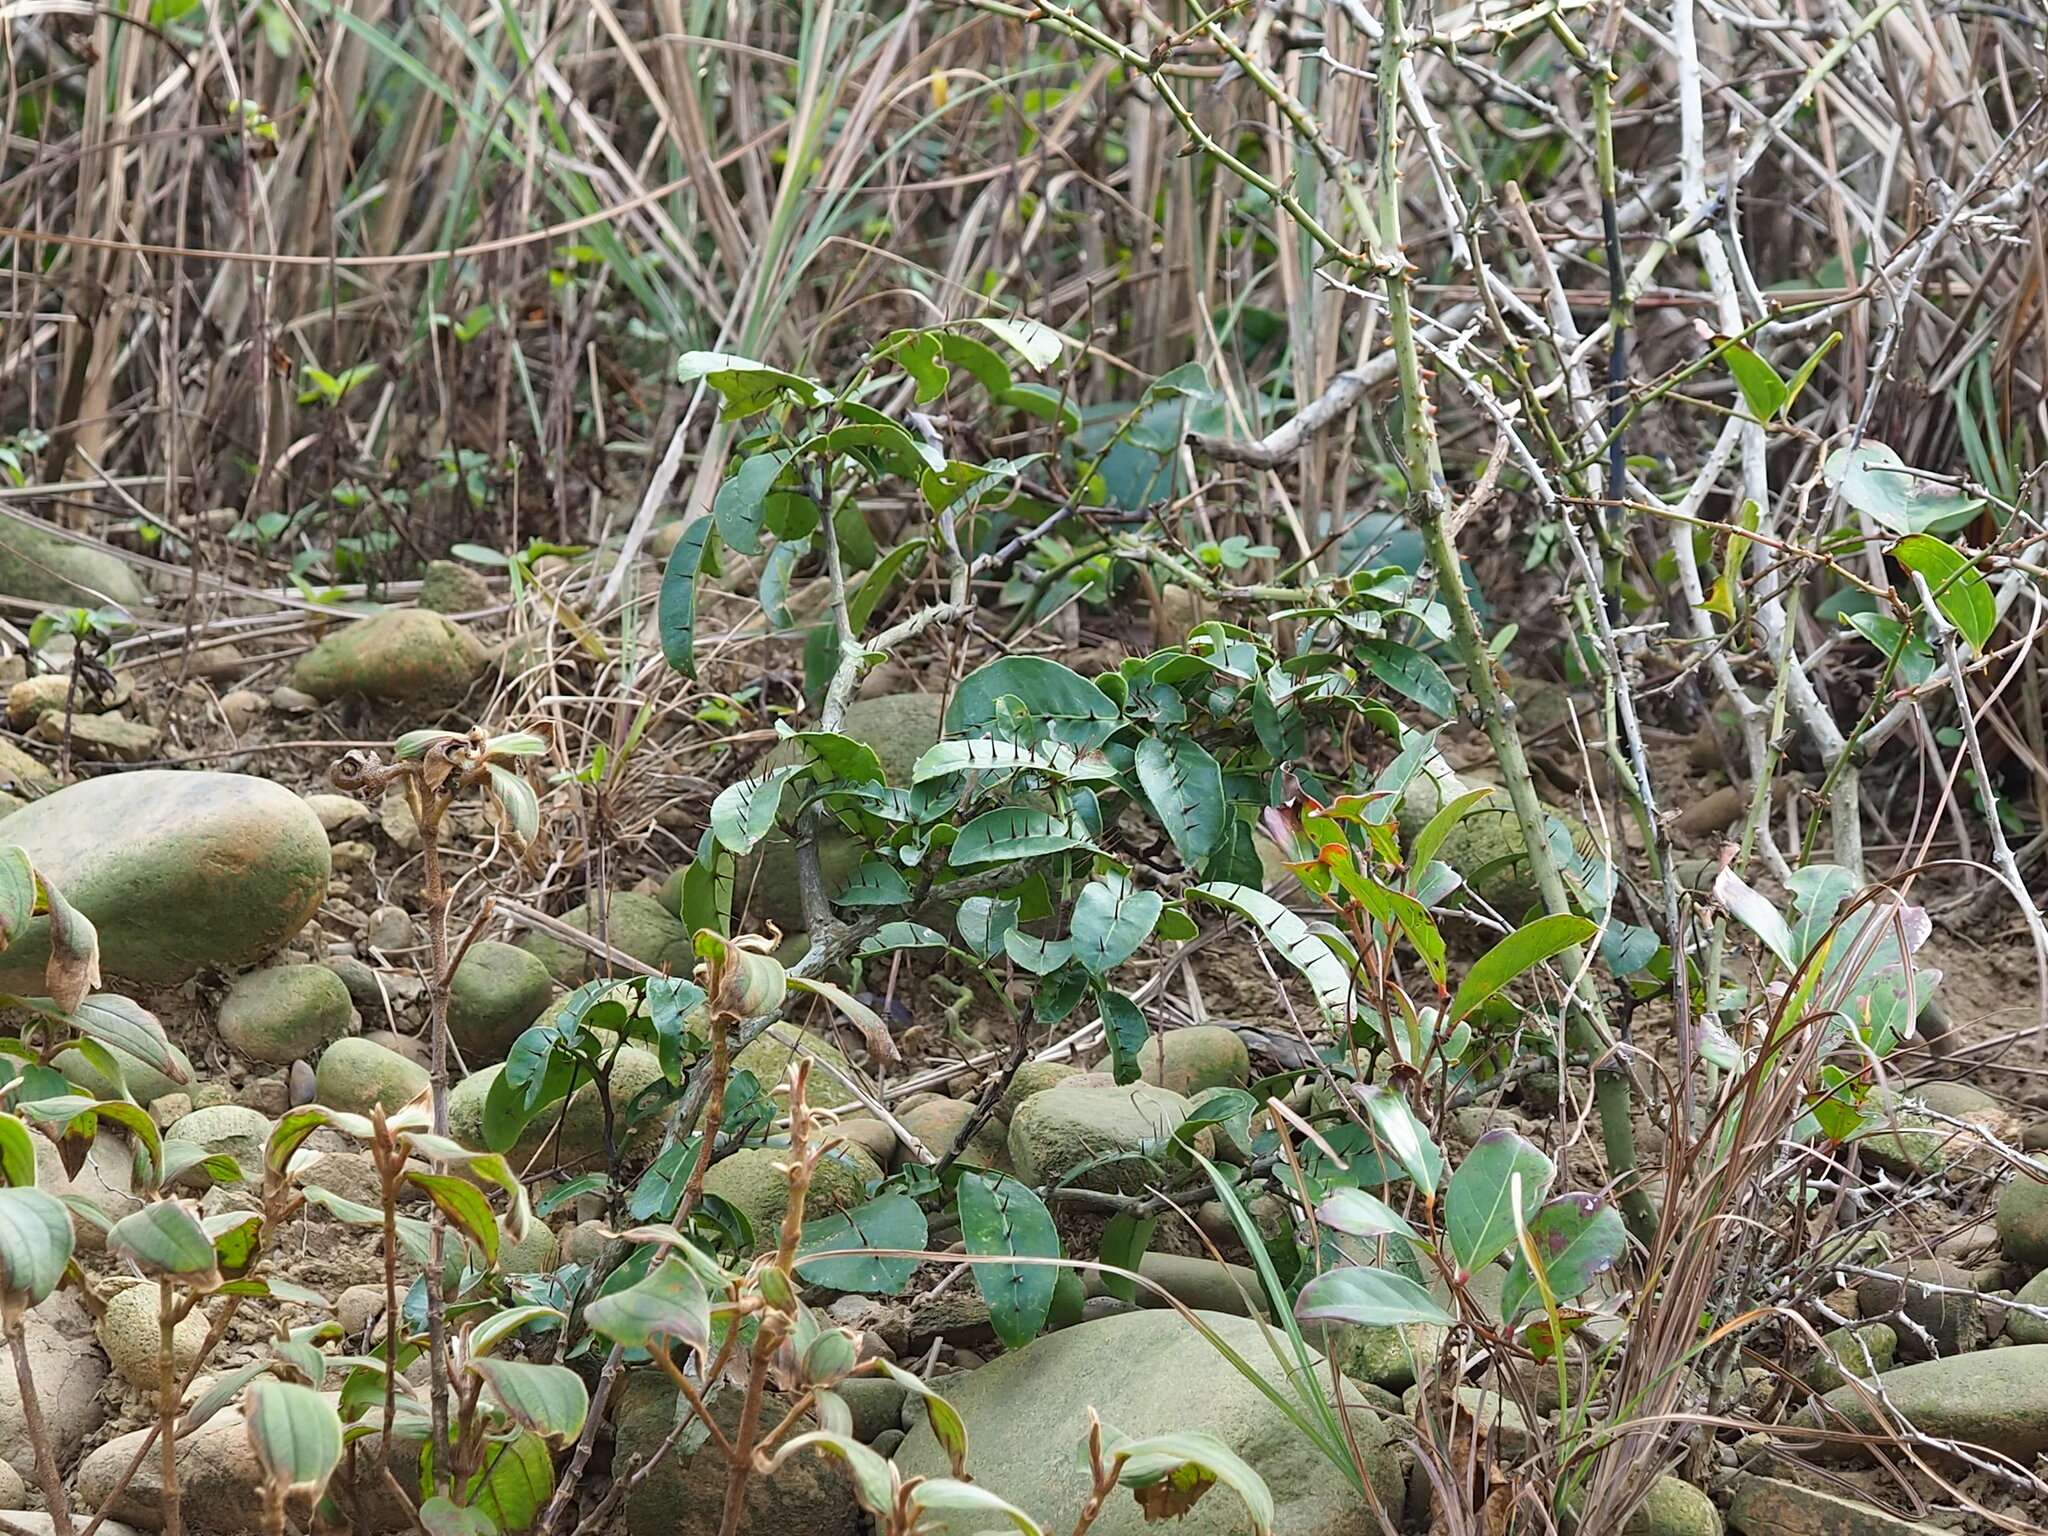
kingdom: Plantae
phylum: Tracheophyta
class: Magnoliopsida
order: Sapindales
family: Rutaceae
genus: Zanthoxylum
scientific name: Zanthoxylum nitidum
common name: Shiny-leaf prickly-ash
